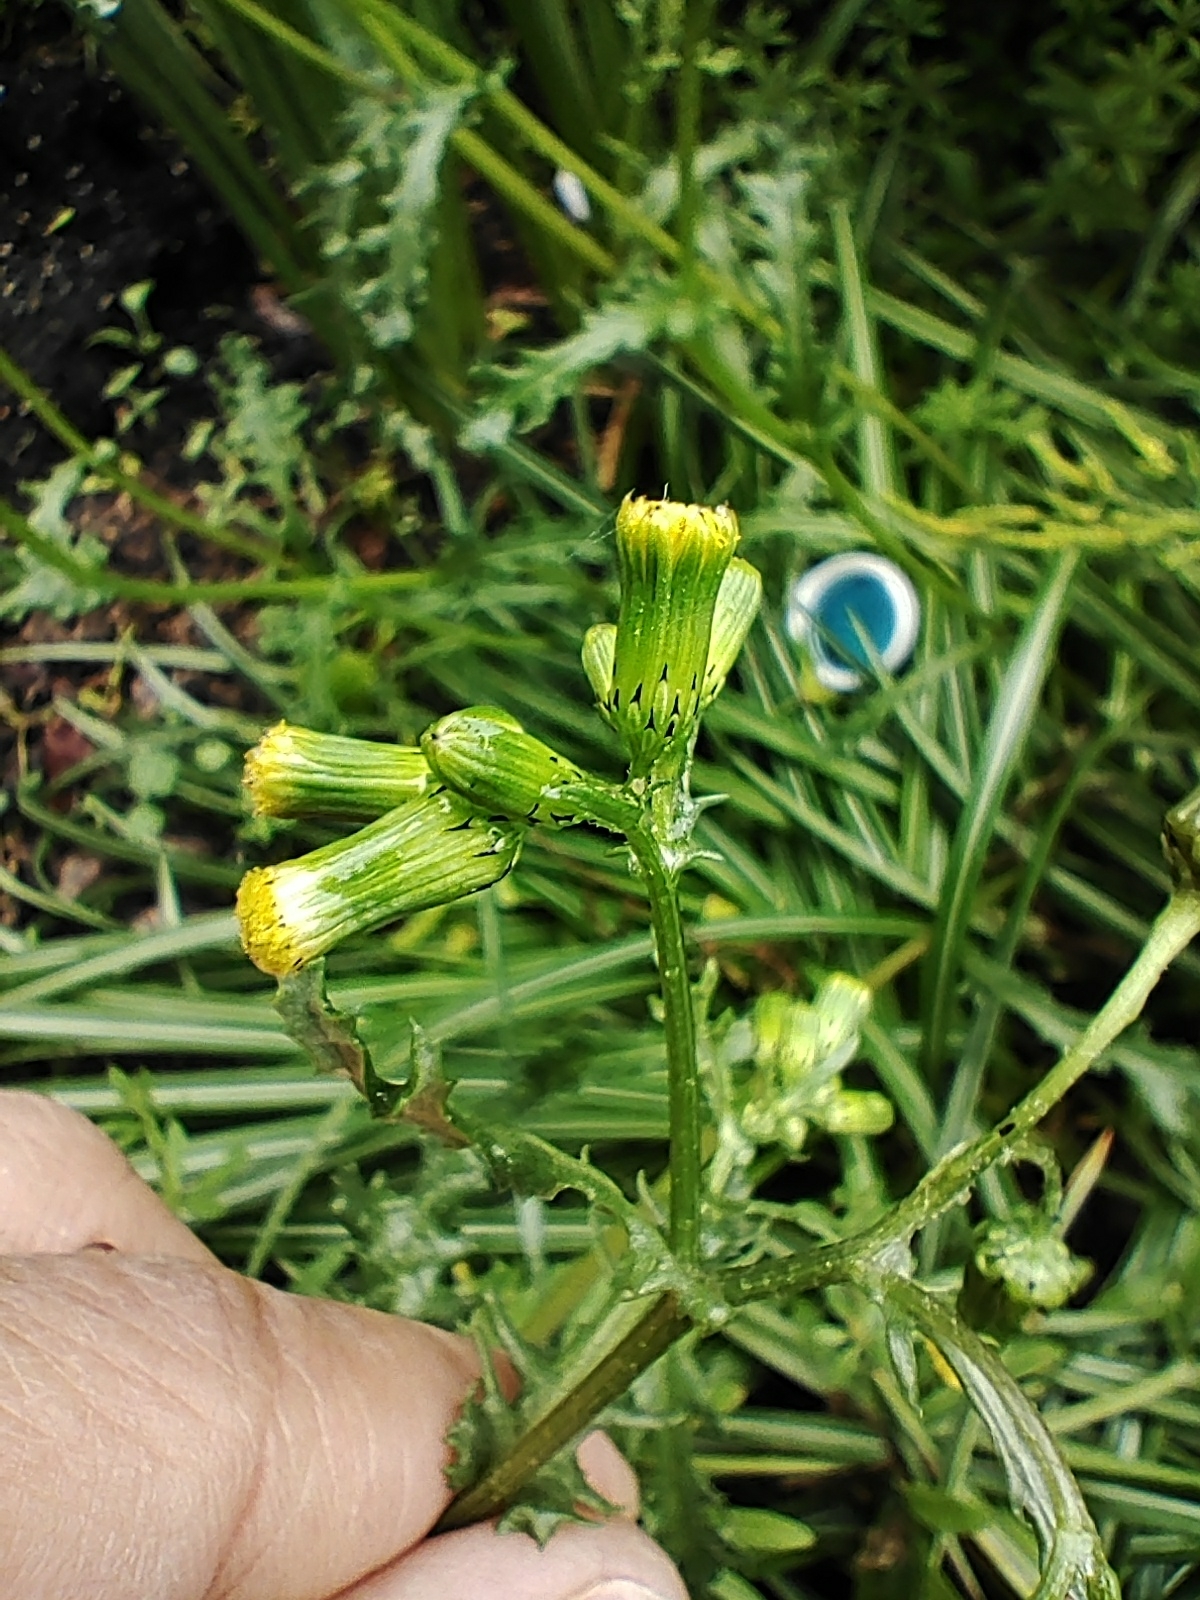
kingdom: Plantae
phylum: Tracheophyta
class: Magnoliopsida
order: Asterales
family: Asteraceae
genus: Senecio
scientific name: Senecio vulgaris
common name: Old-man-in-the-spring
